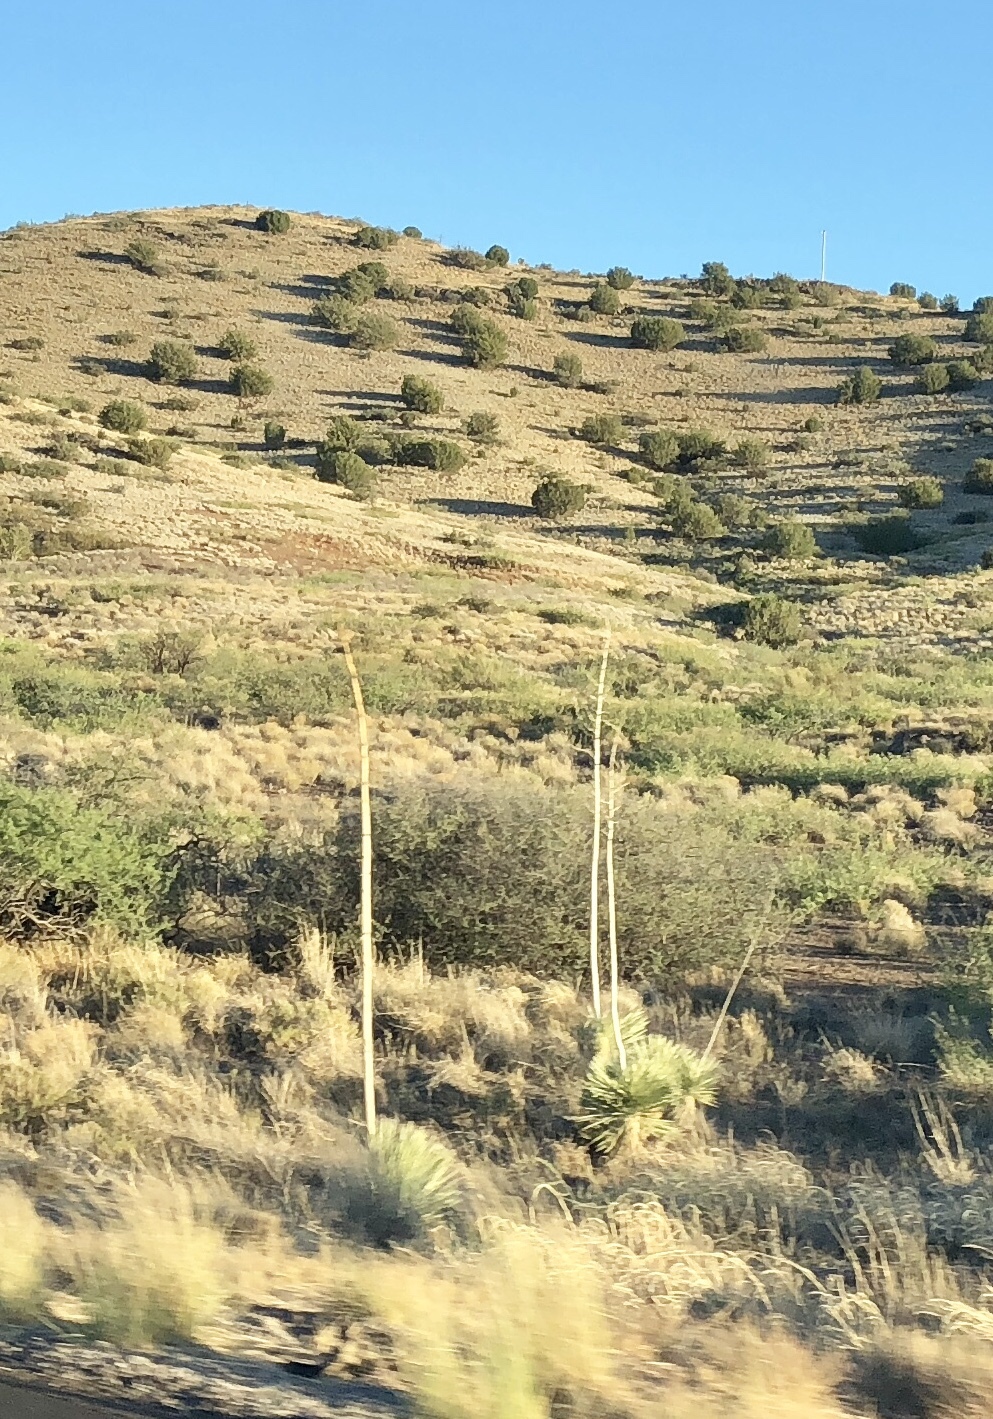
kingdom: Plantae
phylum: Tracheophyta
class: Liliopsida
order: Asparagales
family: Asparagaceae
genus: Yucca
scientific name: Yucca elata
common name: Palmella
